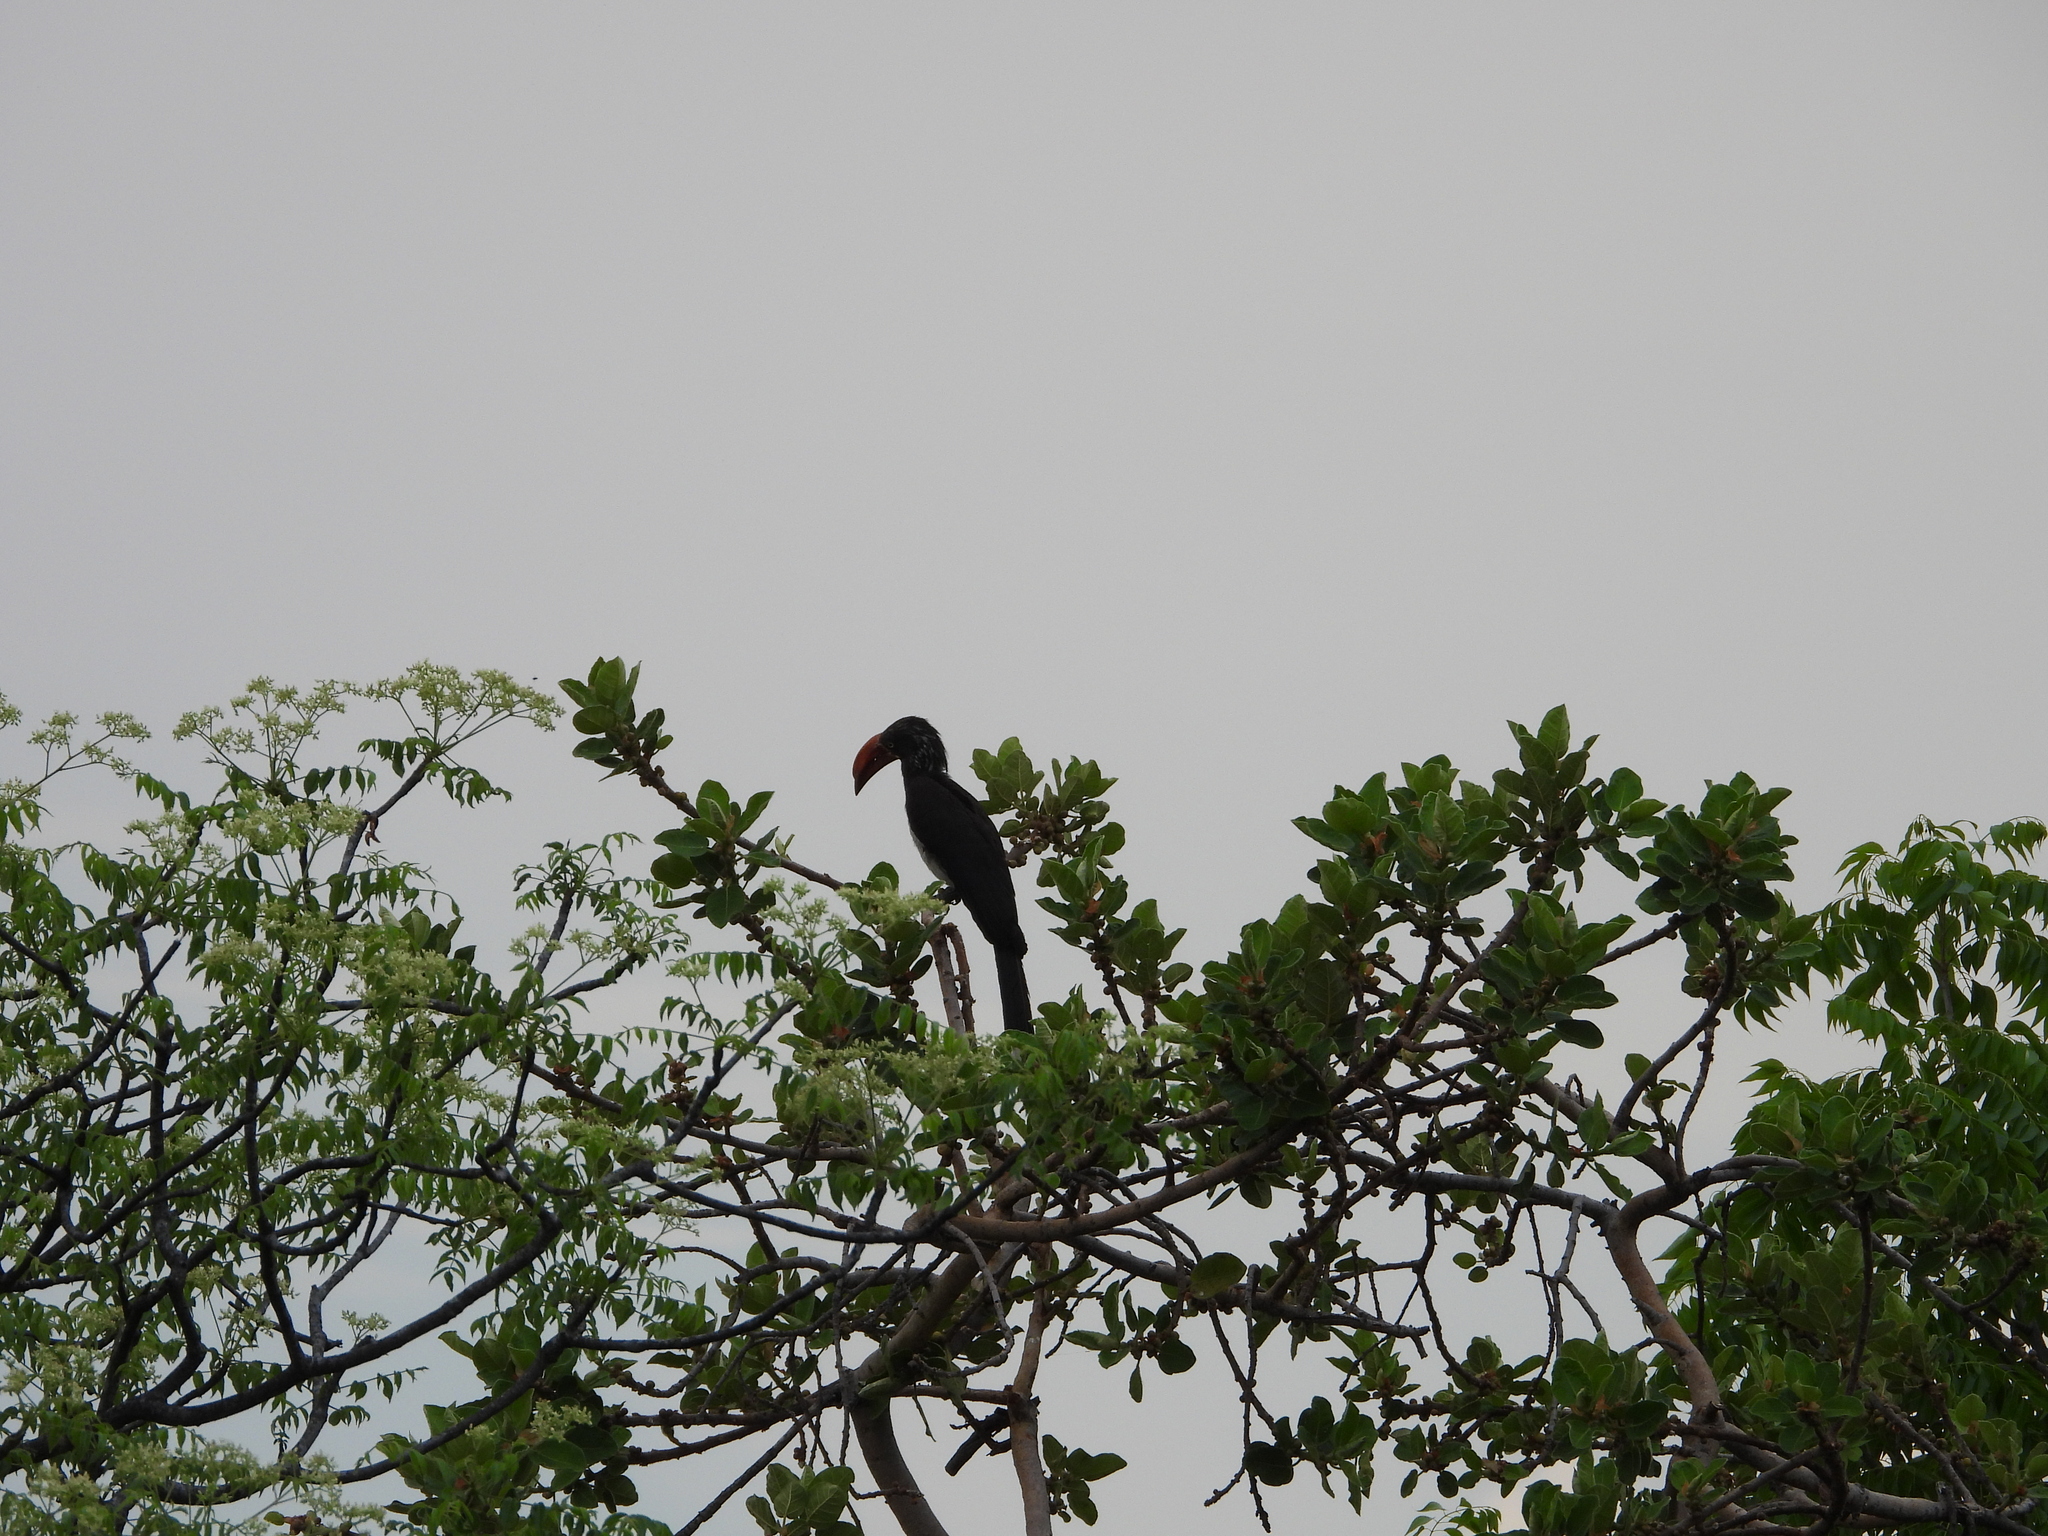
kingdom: Animalia
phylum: Chordata
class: Aves
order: Bucerotiformes
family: Bucerotidae
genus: Lophoceros
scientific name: Lophoceros alboterminatus
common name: Crowned hornbill
